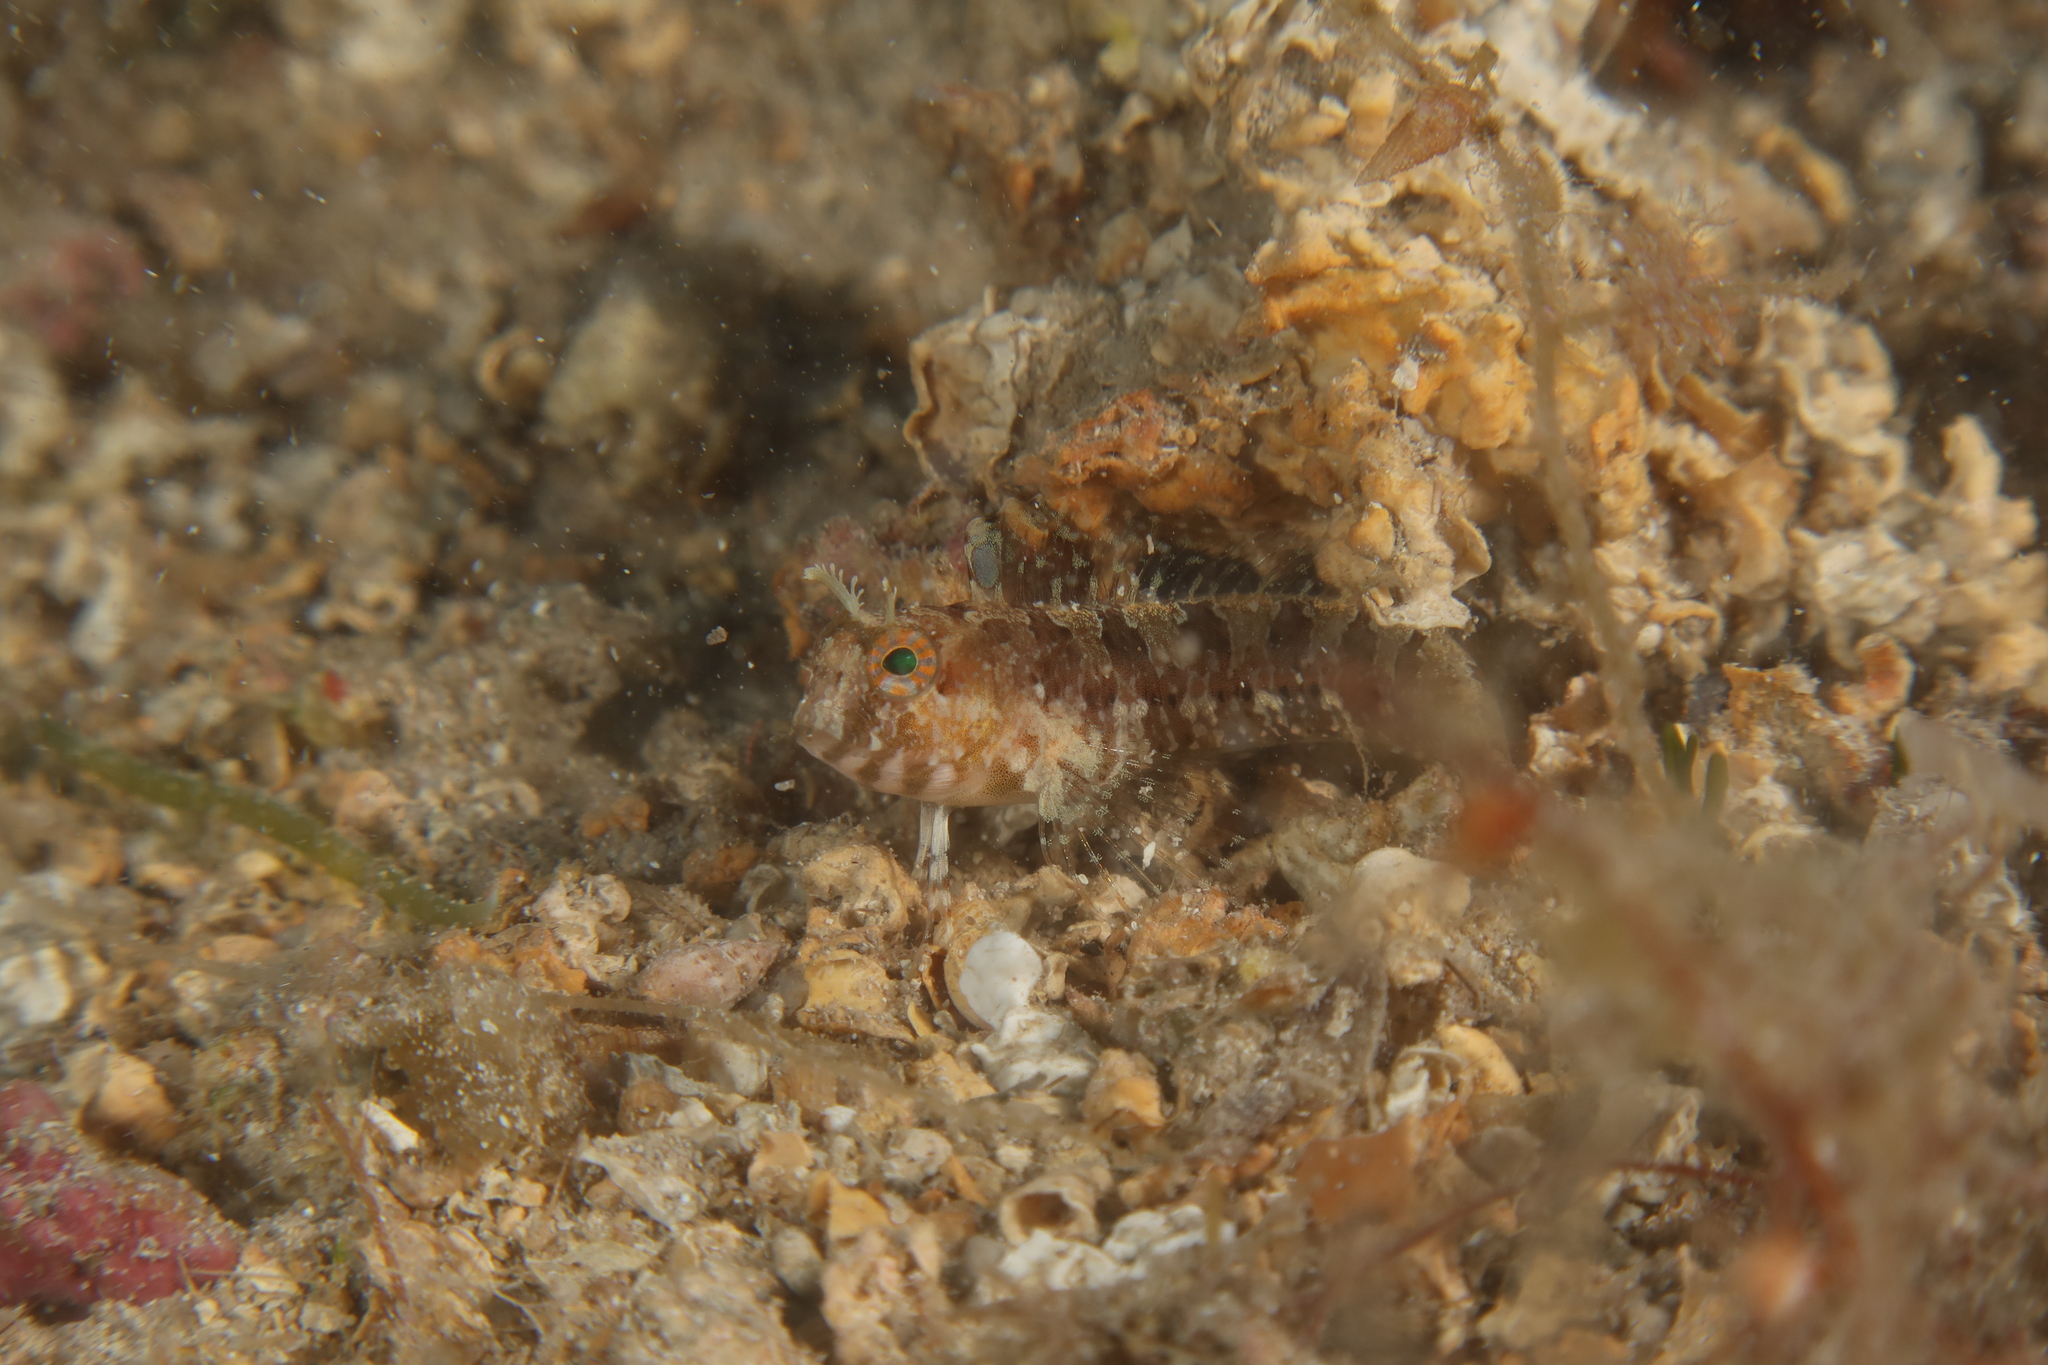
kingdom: Animalia
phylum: Chordata
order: Perciformes
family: Blenniidae
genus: Parablennius
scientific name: Parablennius tentacularis
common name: Tentacled blenny
